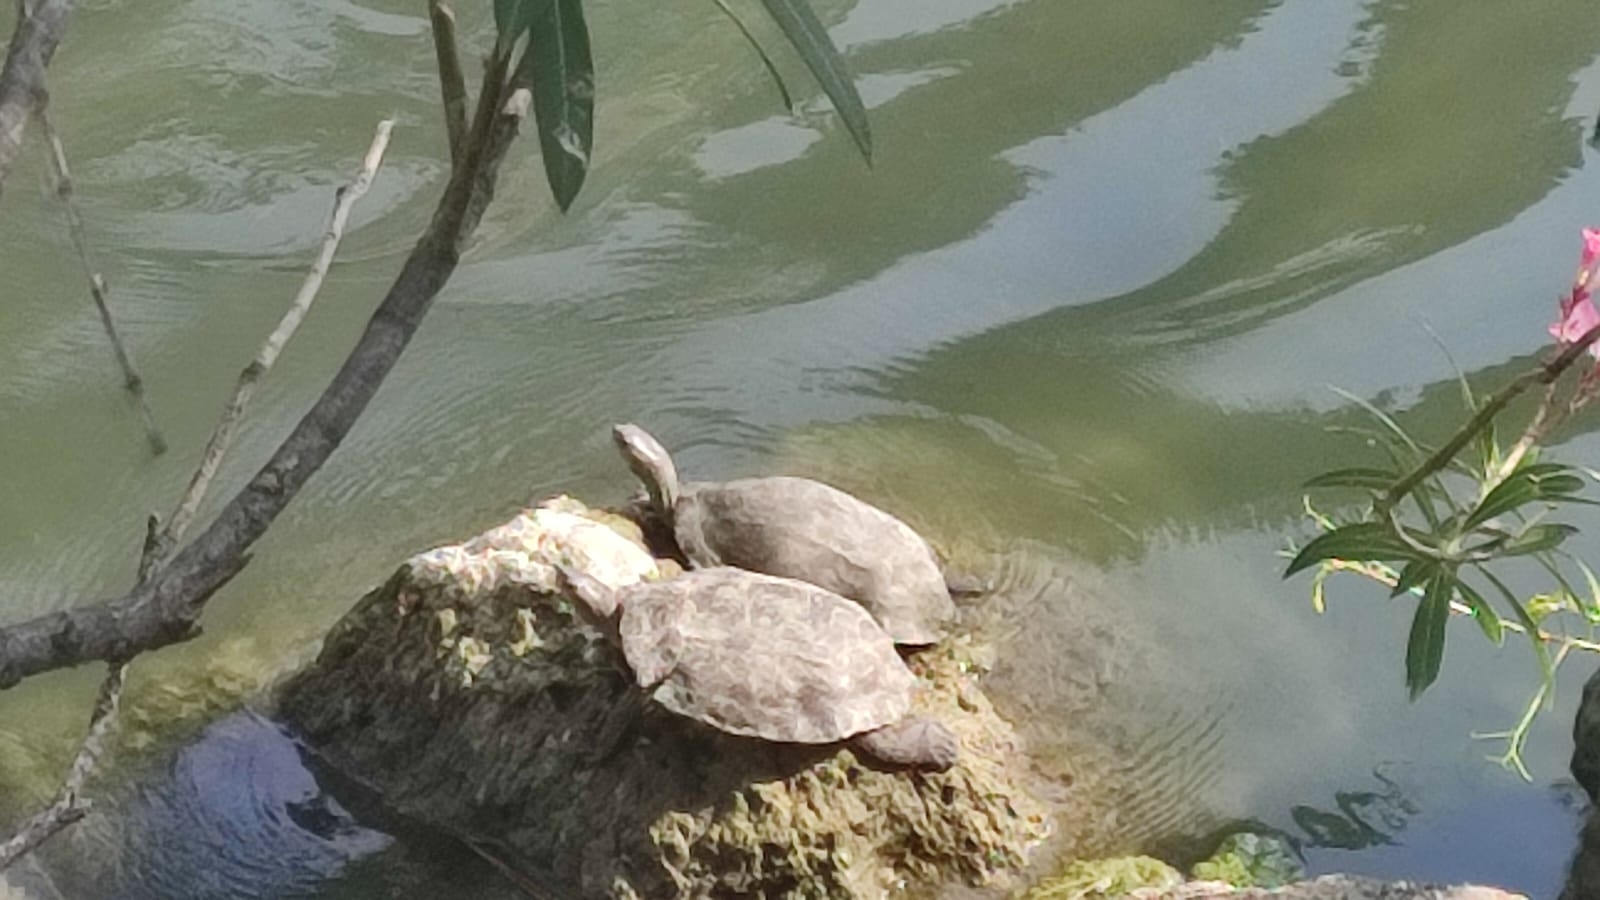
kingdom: Animalia
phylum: Chordata
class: Testudines
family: Geoemydidae
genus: Mauremys
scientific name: Mauremys rivulata
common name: Western caspian turtle
